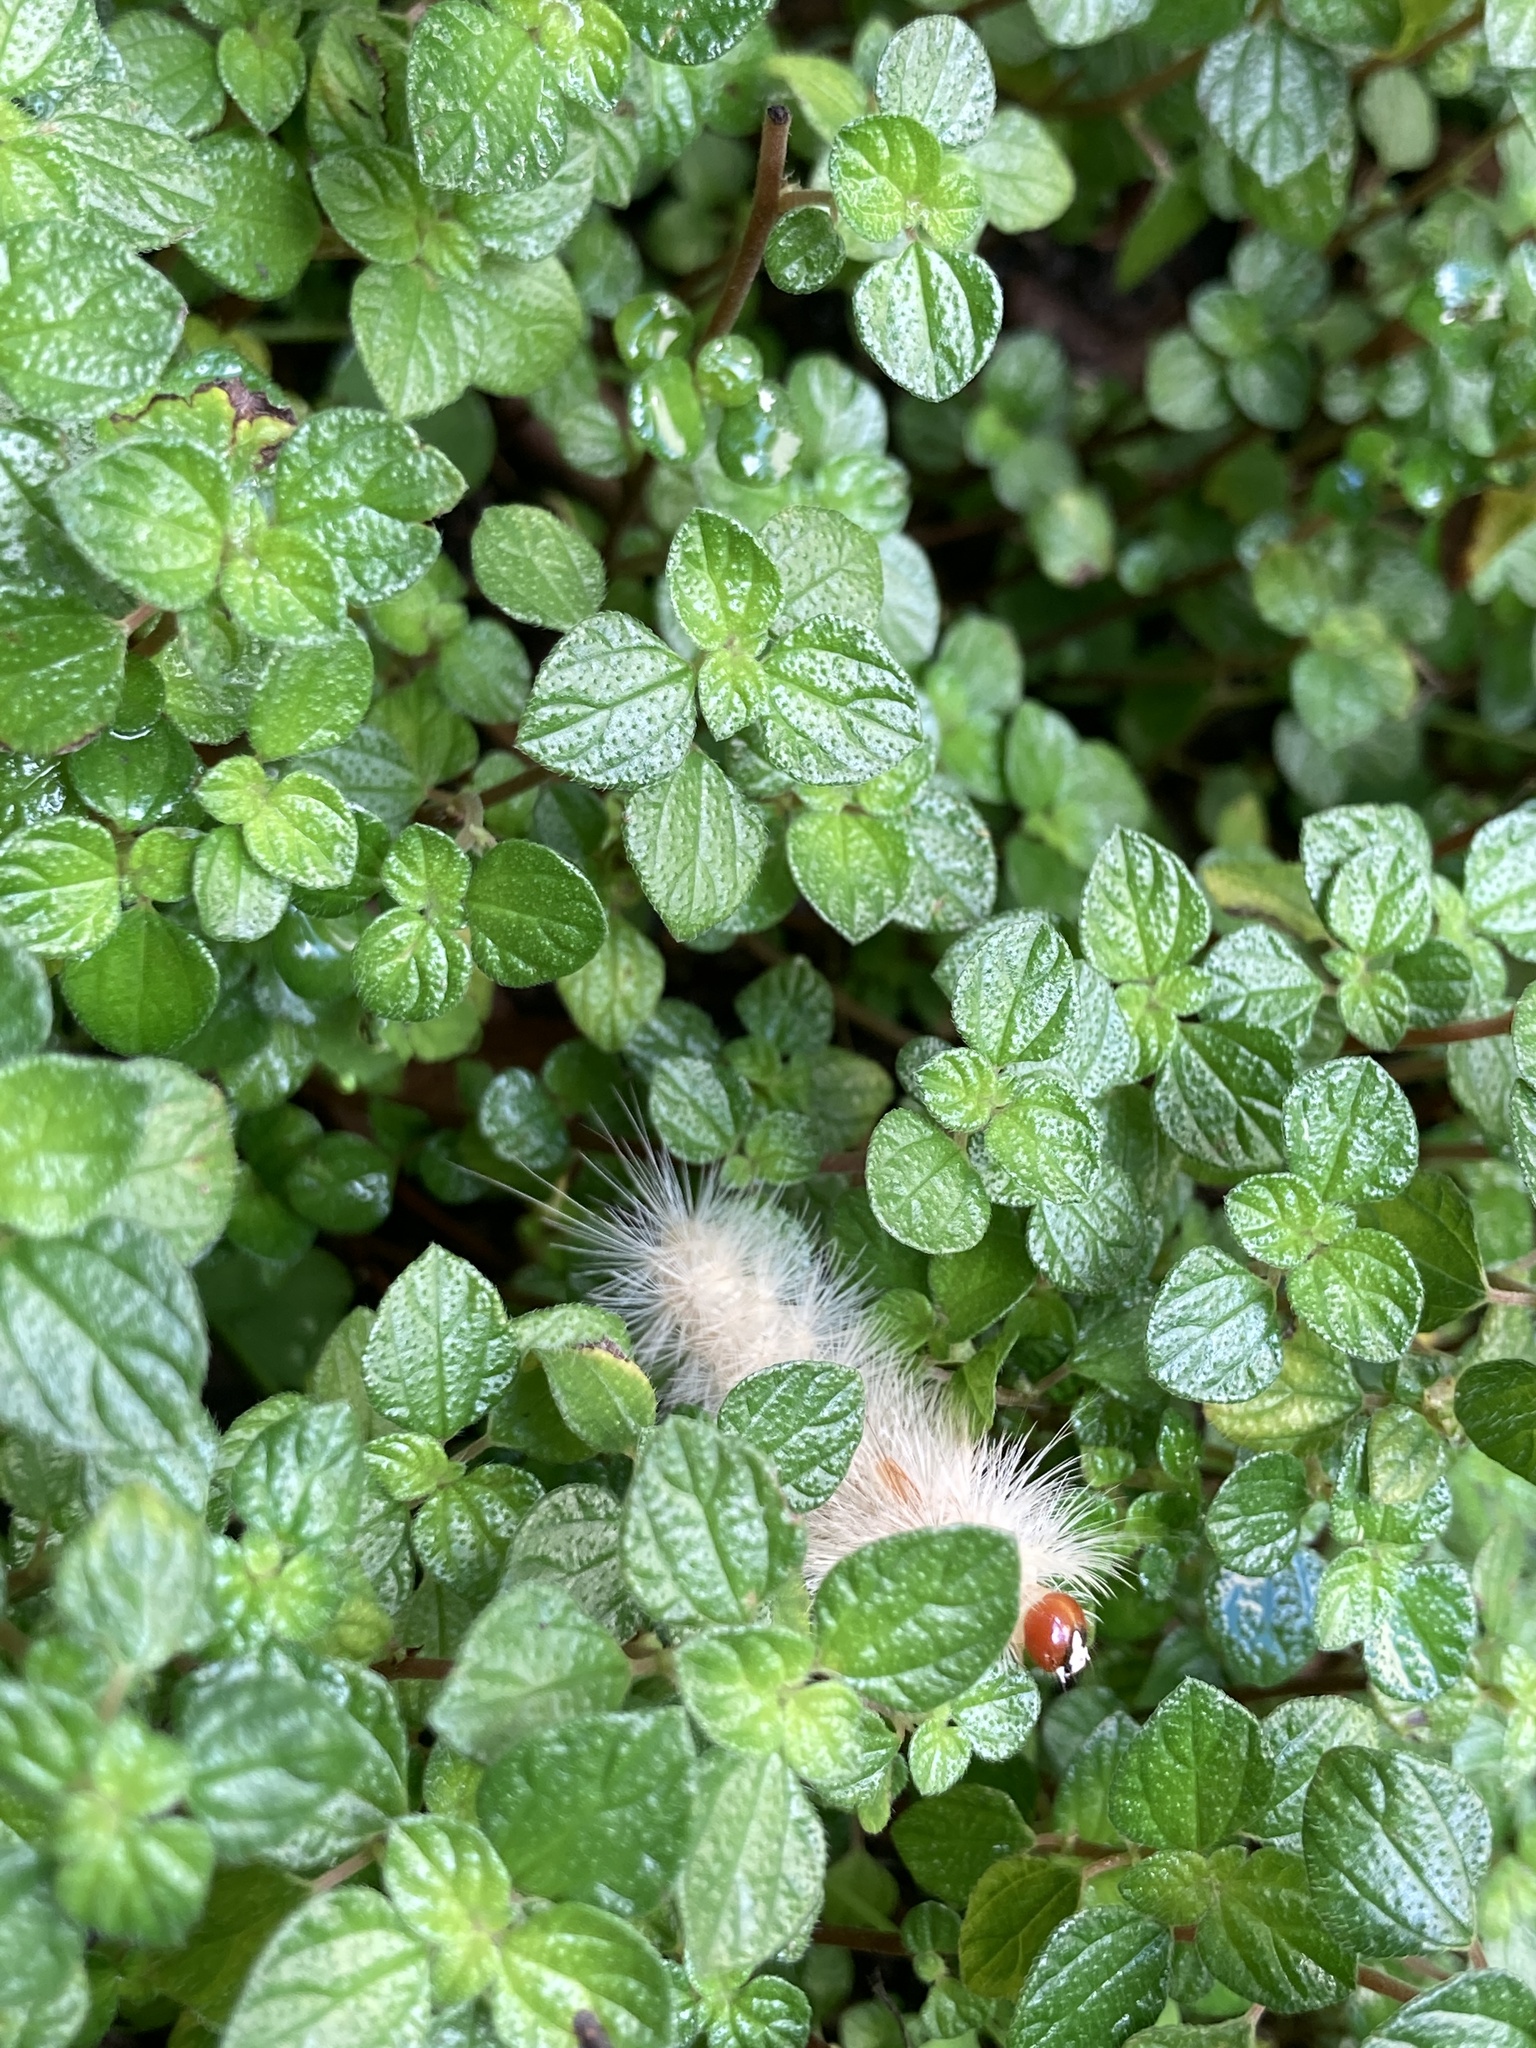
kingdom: Animalia
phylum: Arthropoda
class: Insecta
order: Lepidoptera
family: Erebidae
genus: Lymire
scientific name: Lymire edwardsii
